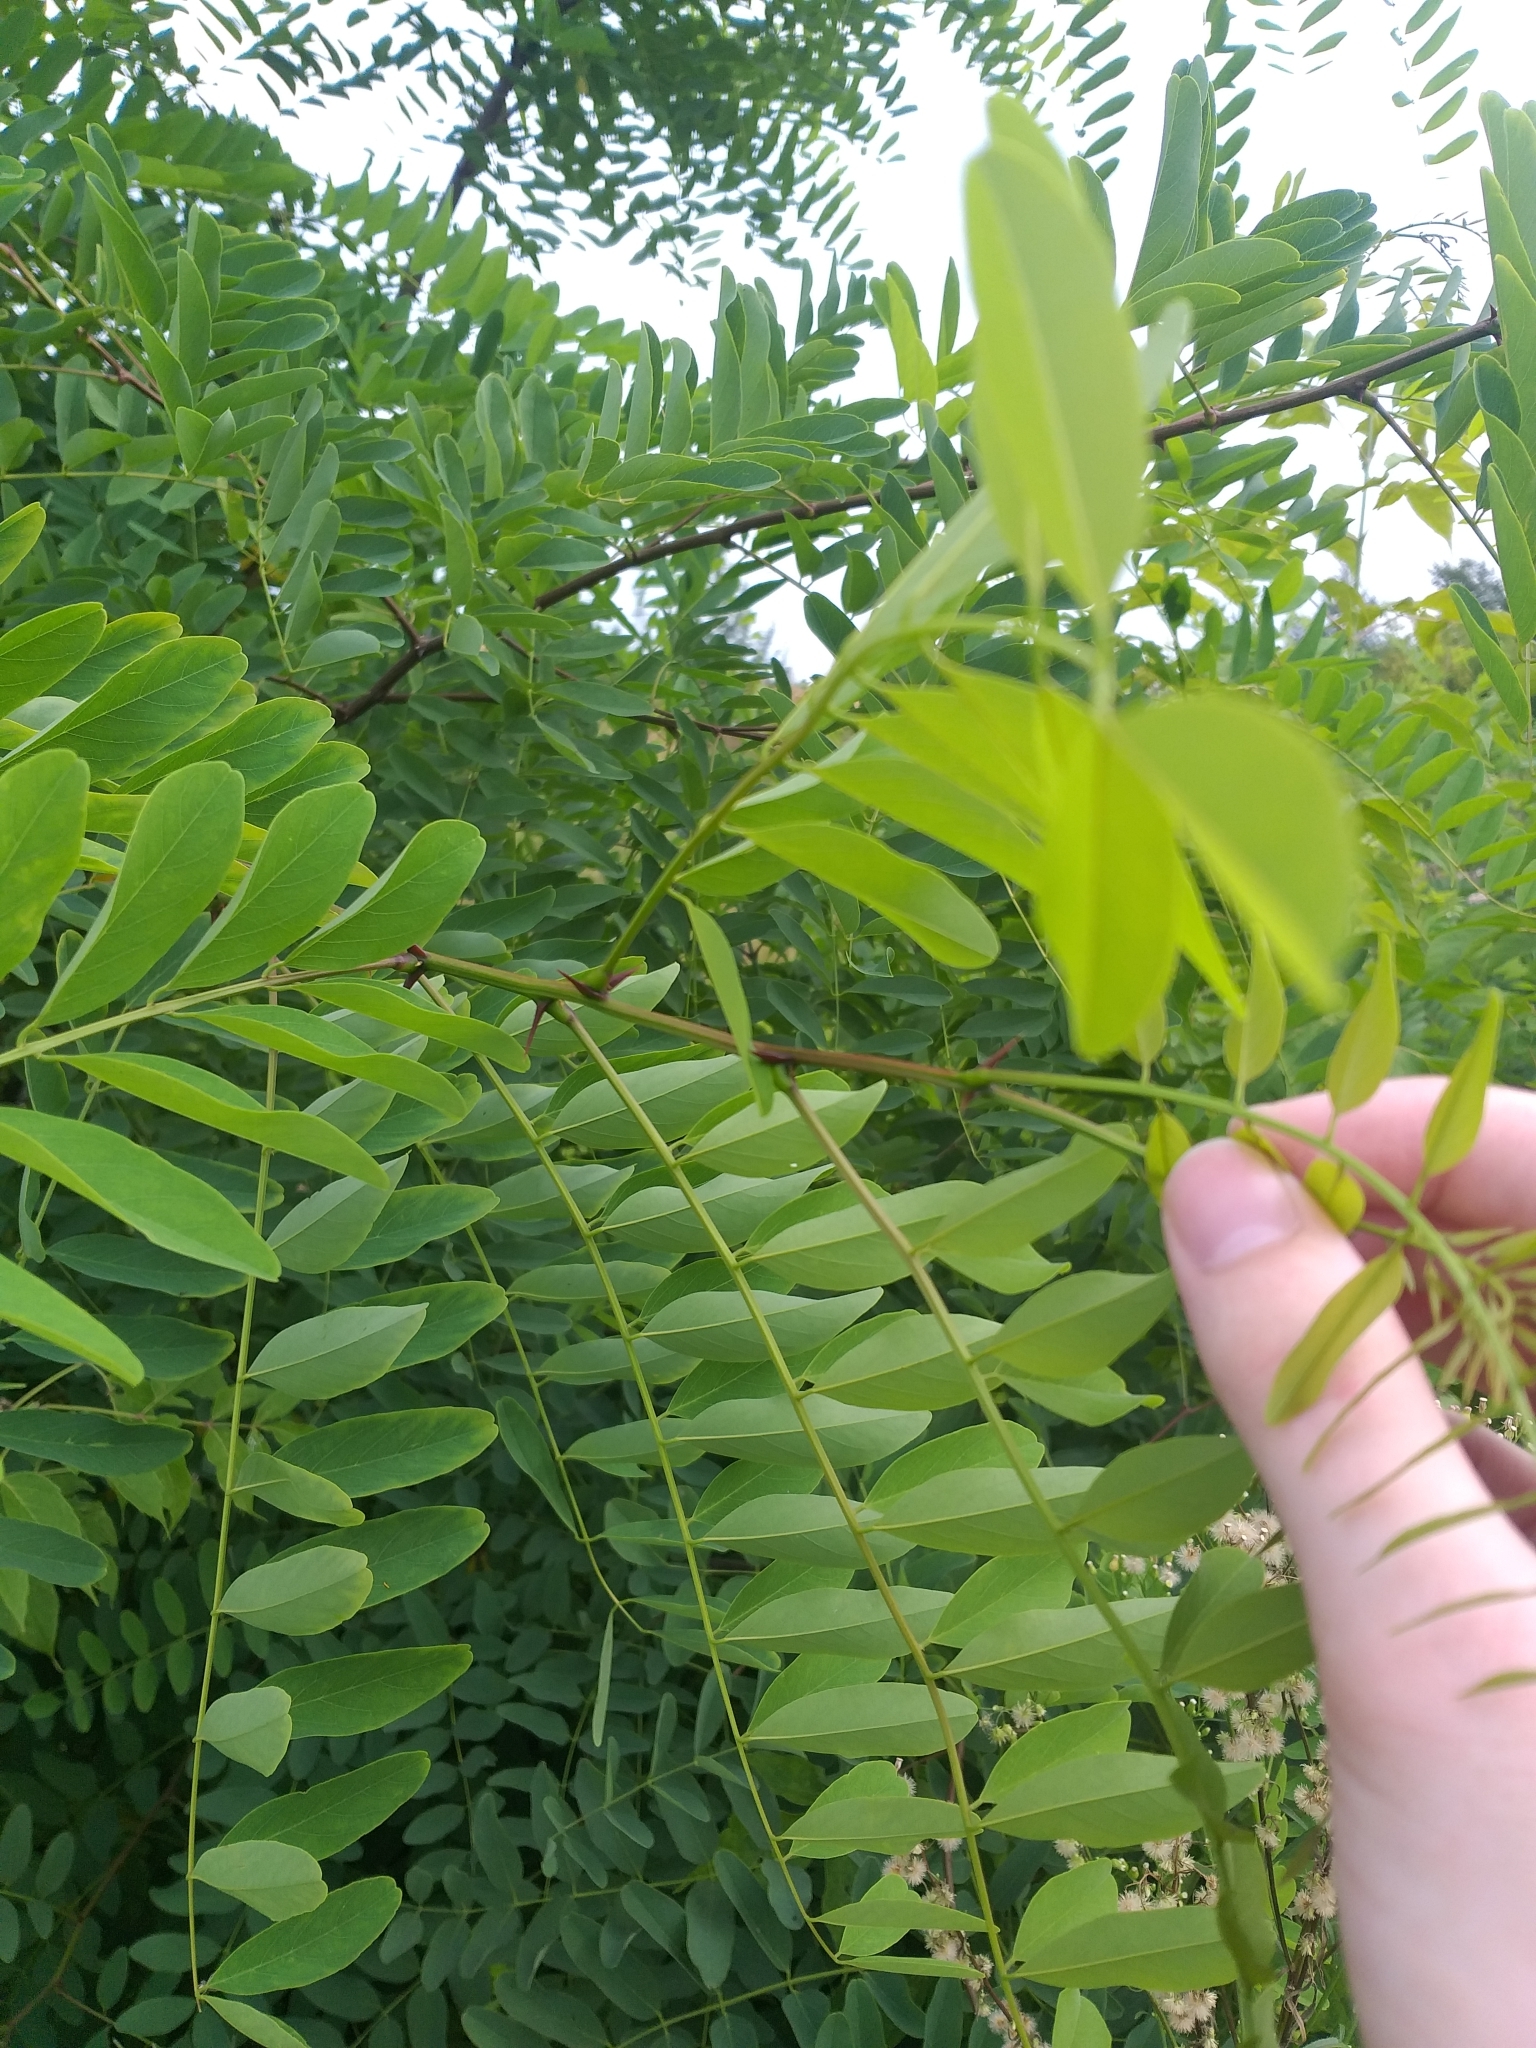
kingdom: Plantae
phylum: Tracheophyta
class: Magnoliopsida
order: Fabales
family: Fabaceae
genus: Robinia
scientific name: Robinia pseudoacacia
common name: Black locust
